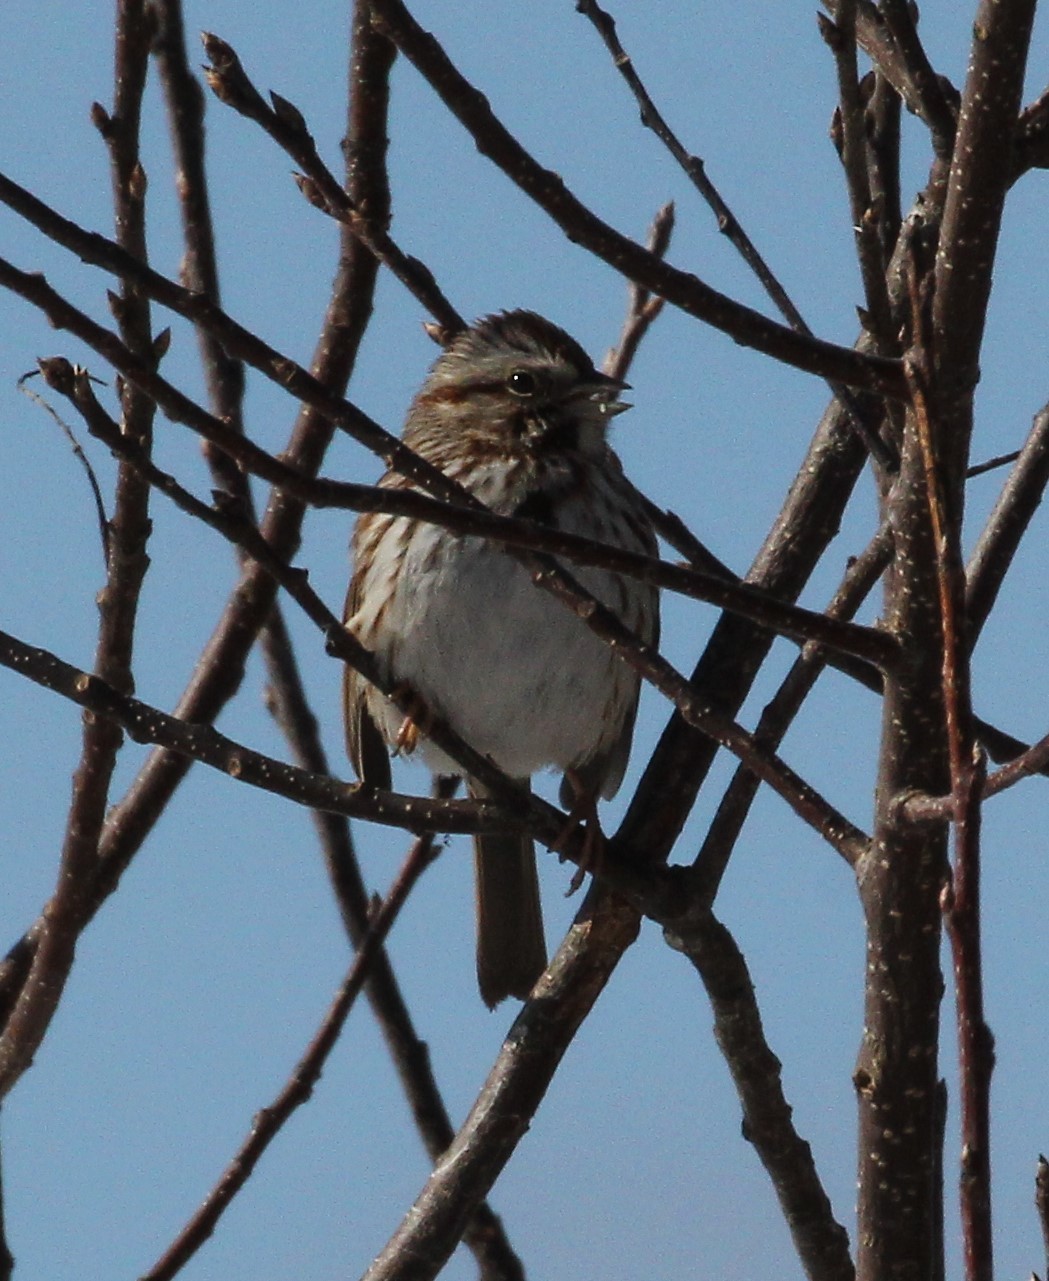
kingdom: Animalia
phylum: Chordata
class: Aves
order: Passeriformes
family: Passerellidae
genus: Melospiza
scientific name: Melospiza melodia
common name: Song sparrow
